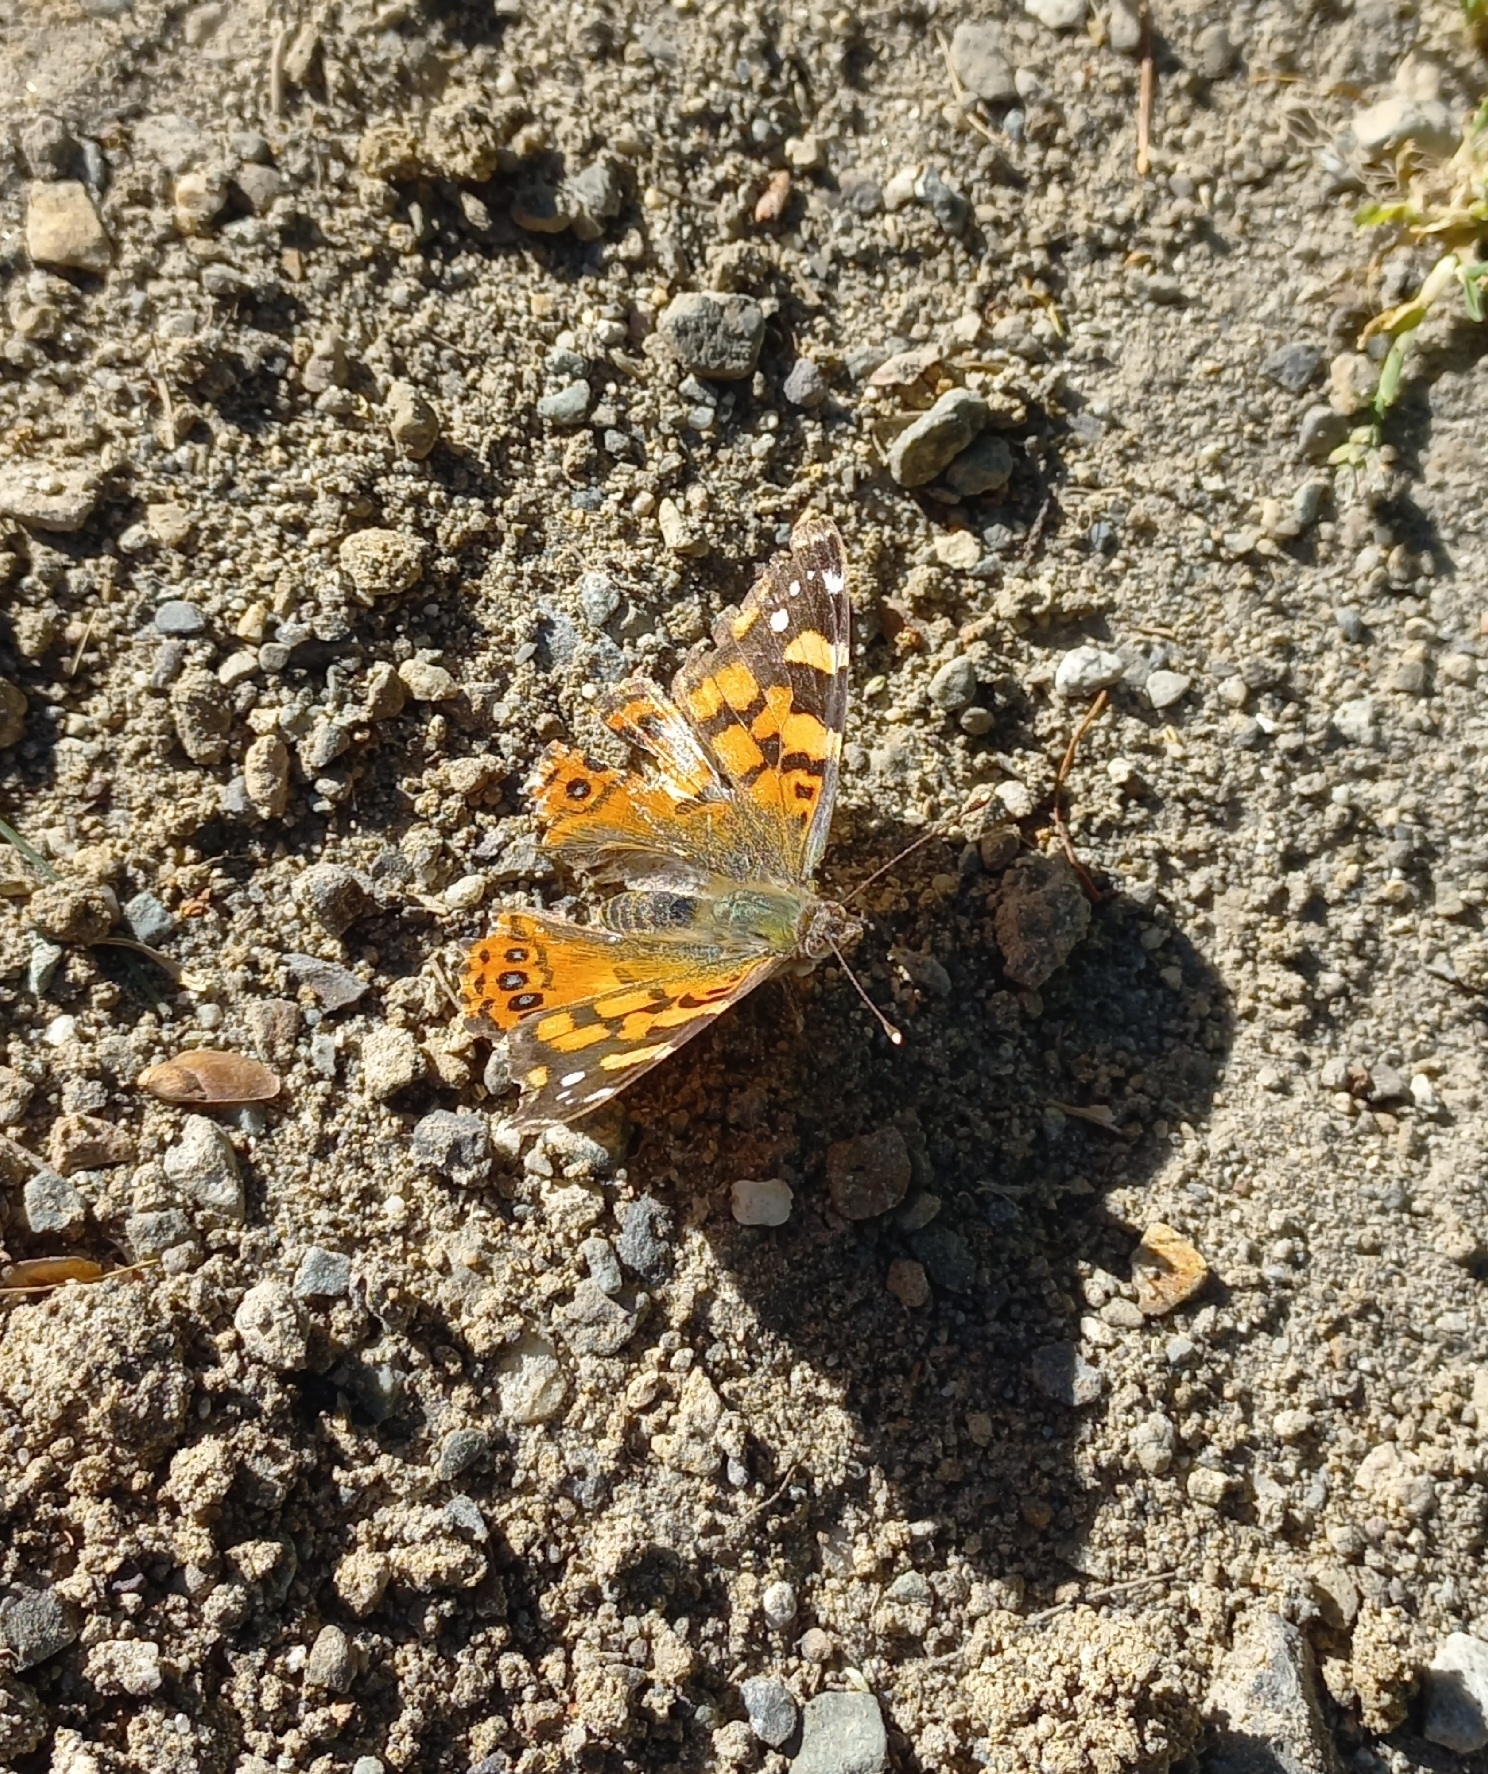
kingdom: Animalia
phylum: Arthropoda
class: Insecta
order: Lepidoptera
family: Nymphalidae
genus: Vanessa
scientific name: Vanessa carye
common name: Subtropical lady
